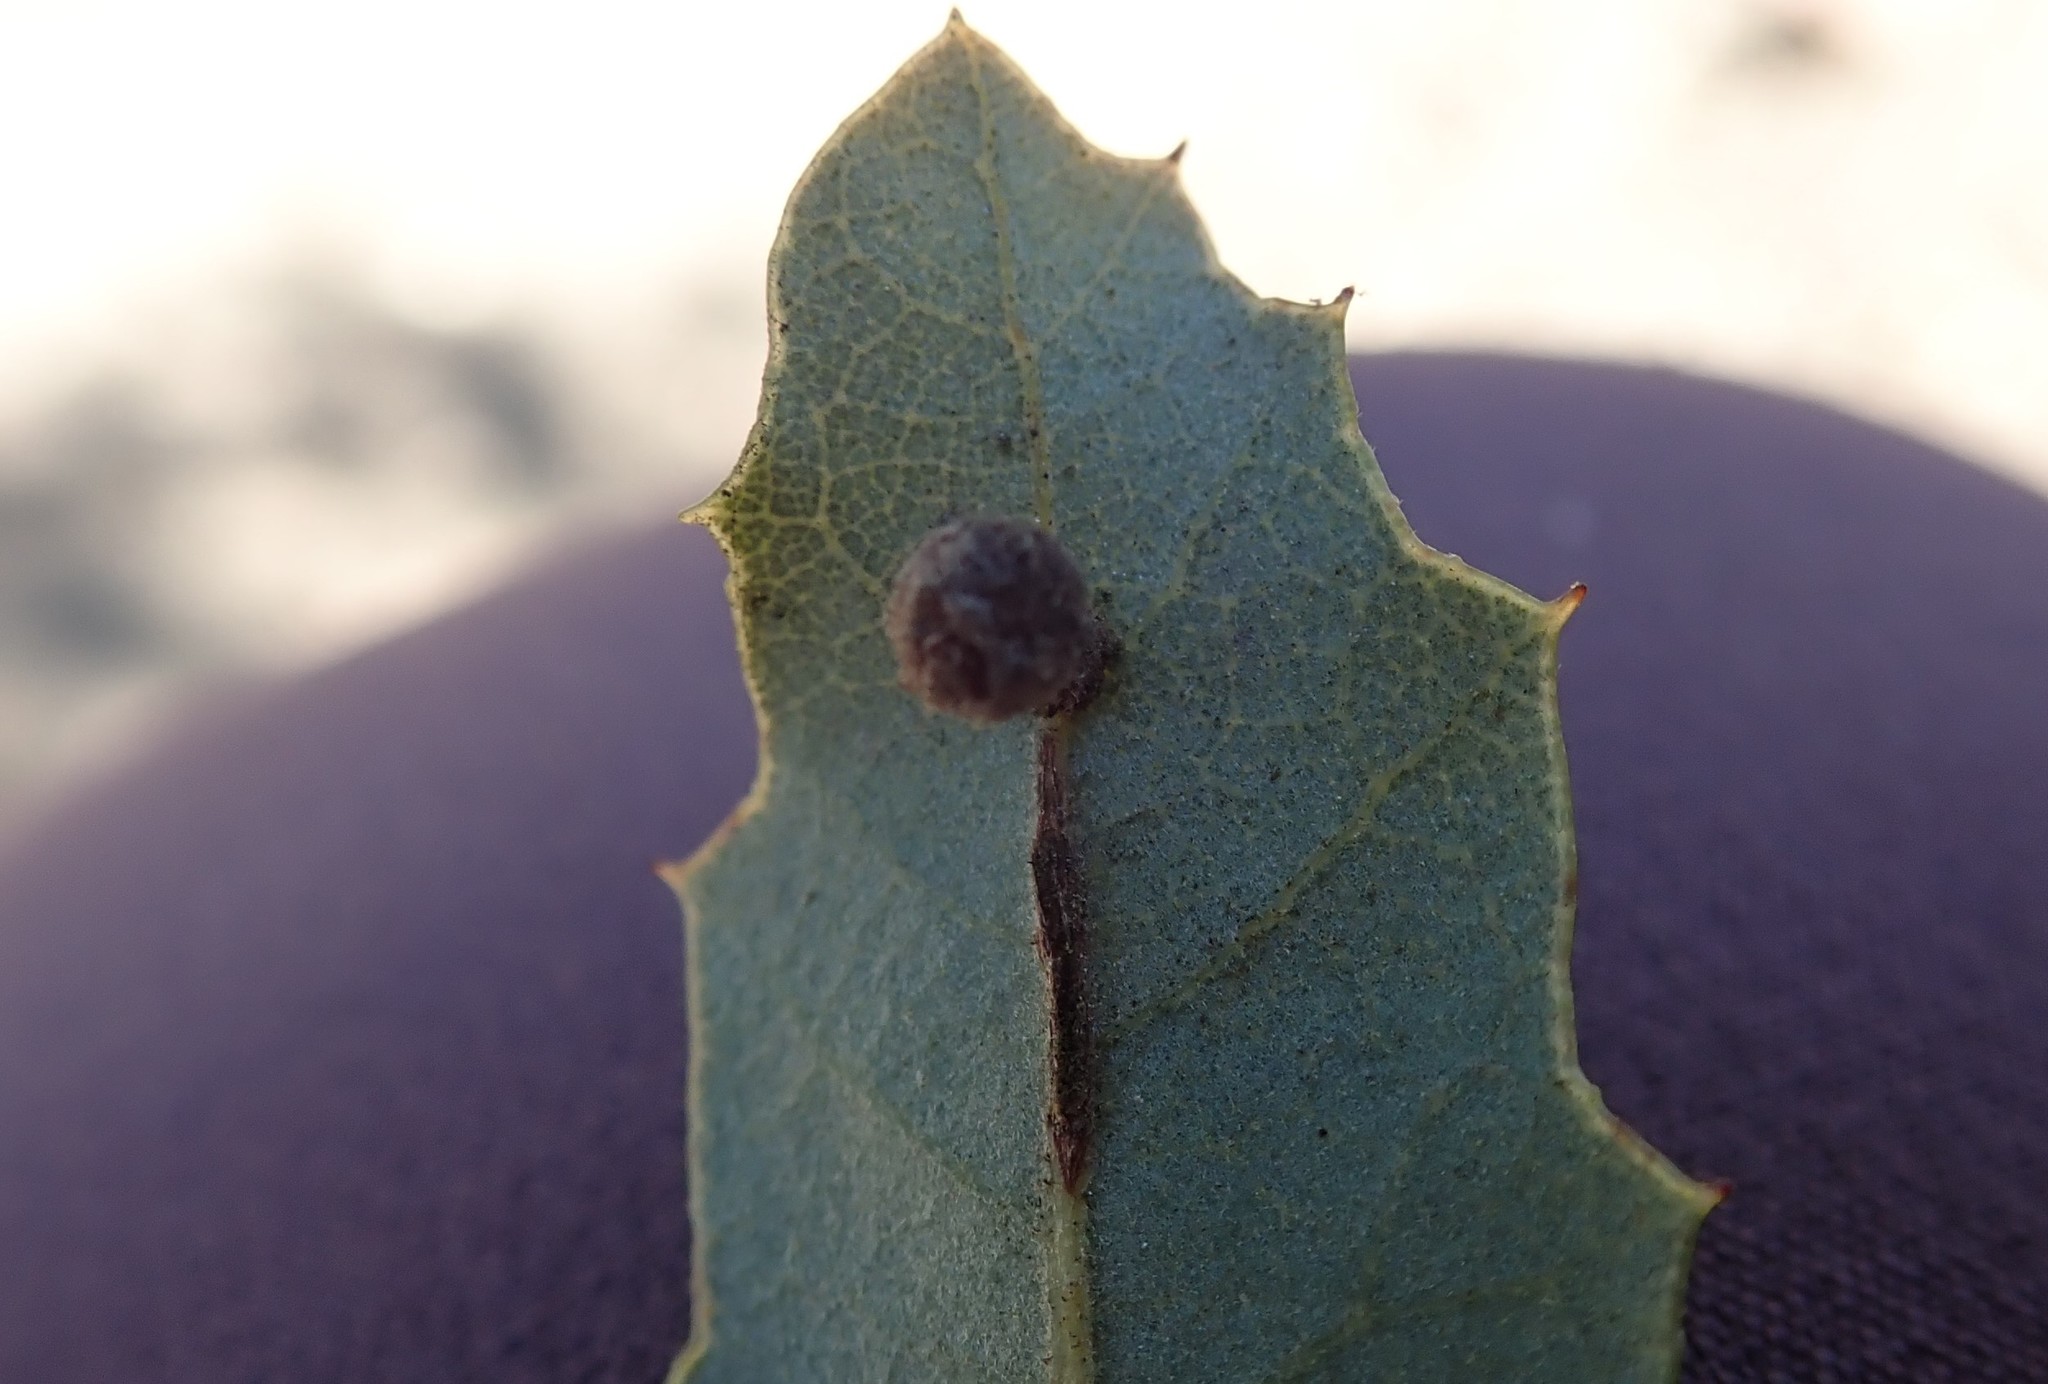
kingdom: Animalia
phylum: Arthropoda
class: Insecta
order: Hymenoptera
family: Cynipidae
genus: Trigonaspis
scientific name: Trigonaspis
